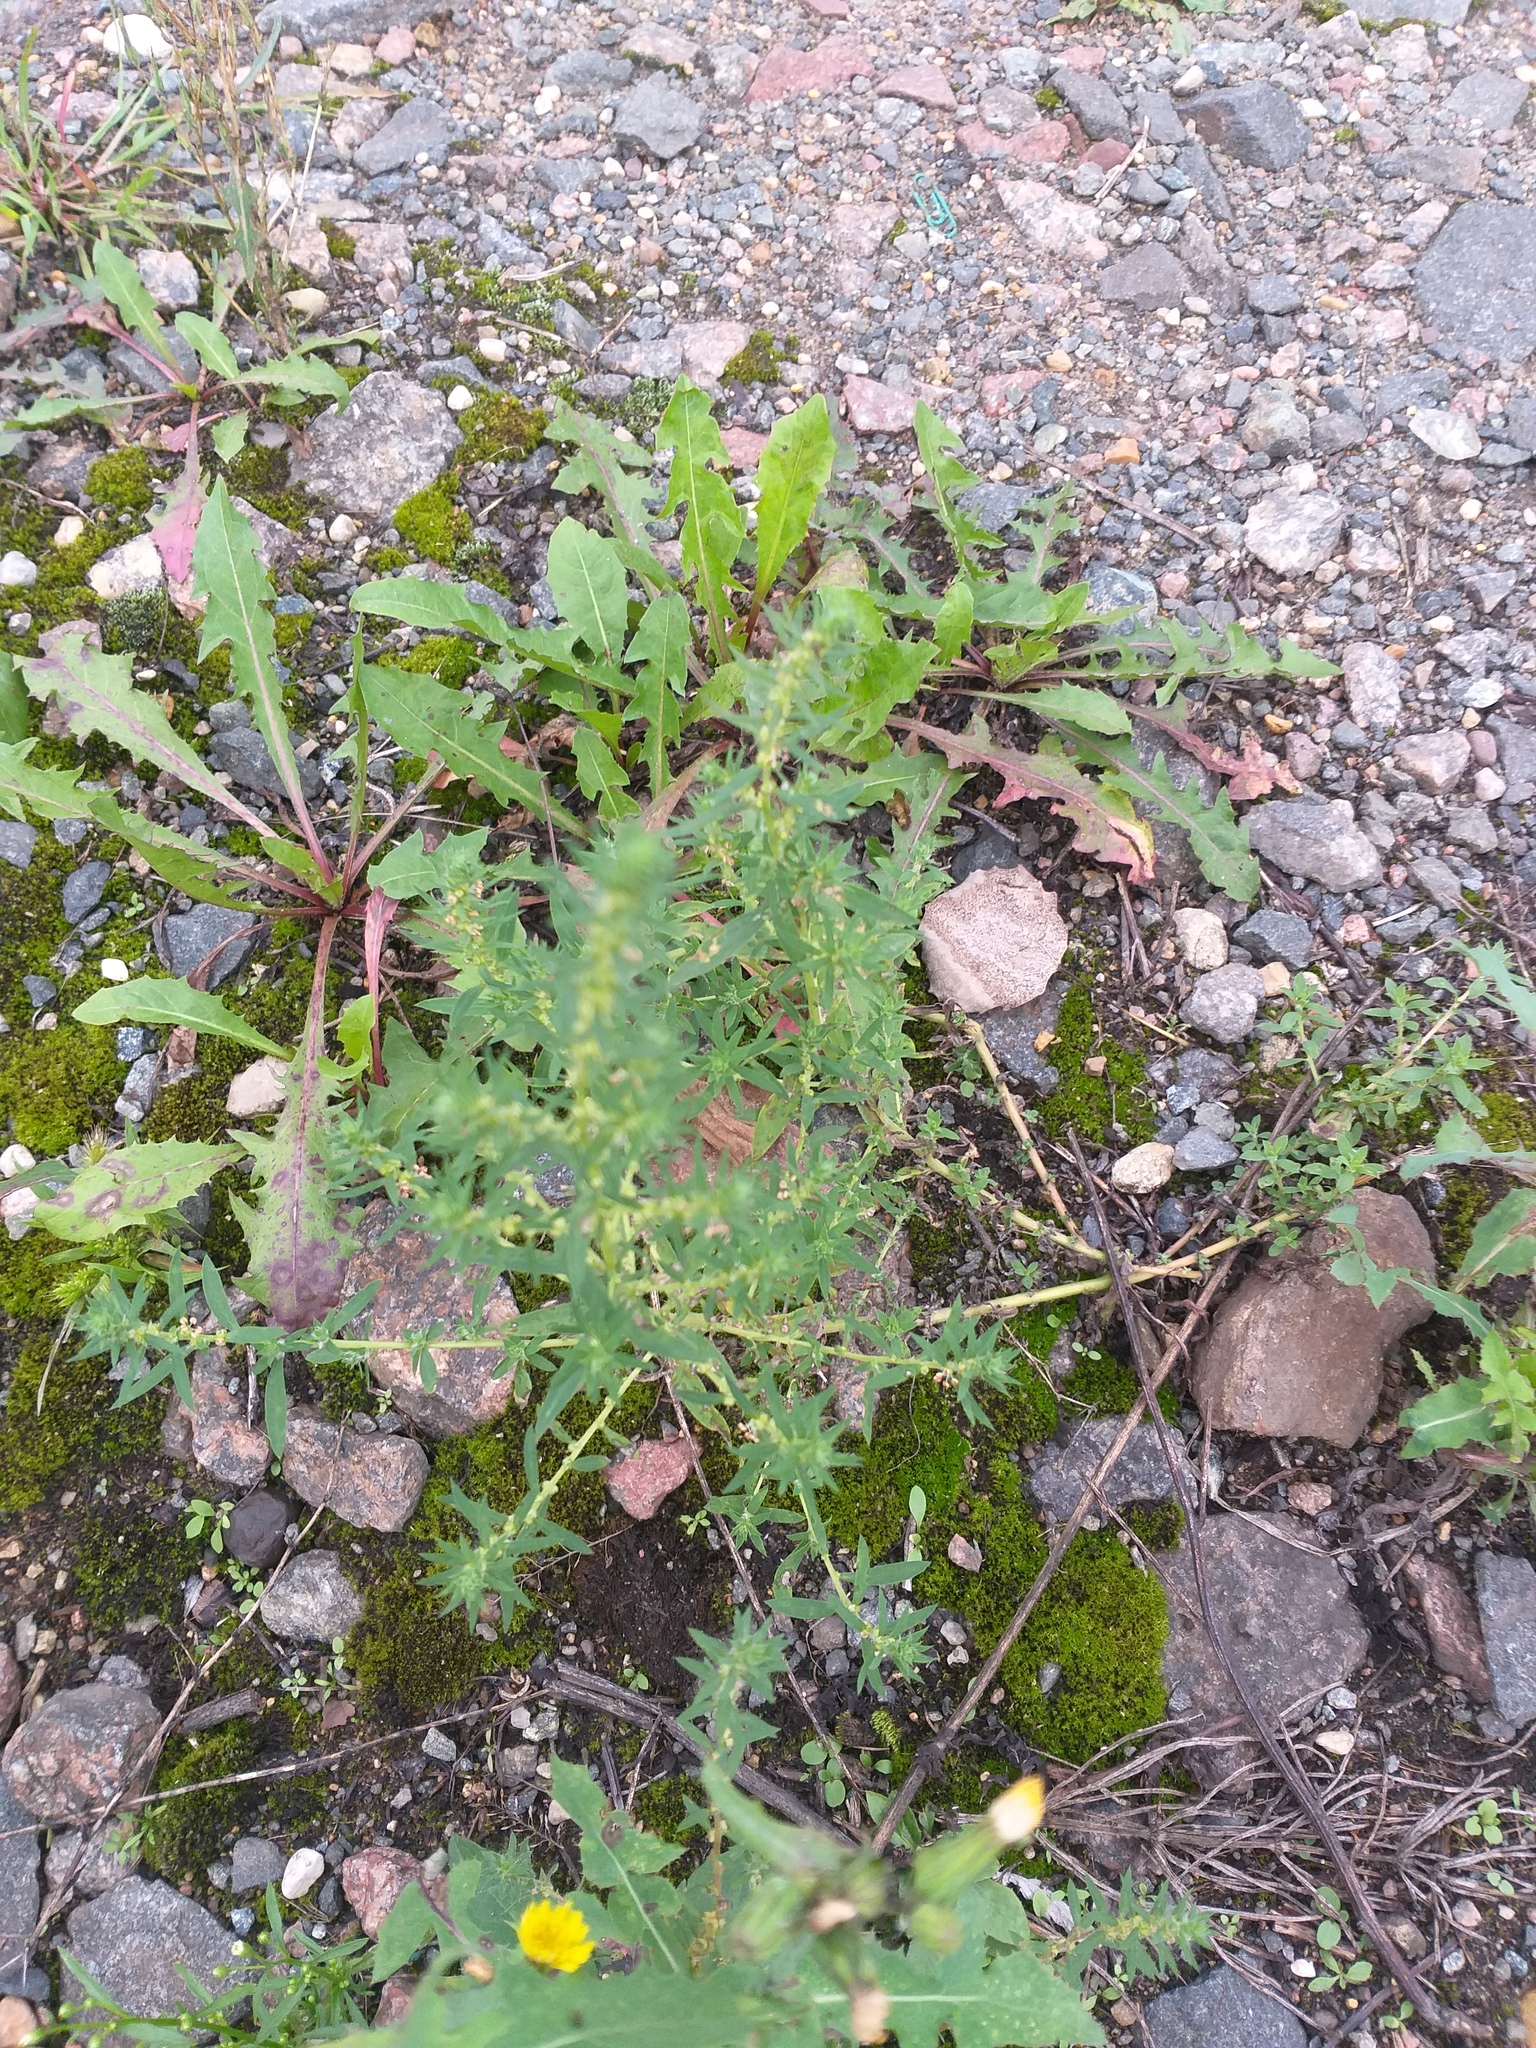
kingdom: Plantae
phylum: Tracheophyta
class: Magnoliopsida
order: Caryophyllales
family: Amaranthaceae
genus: Bassia
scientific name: Bassia scoparia
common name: Belvedere
